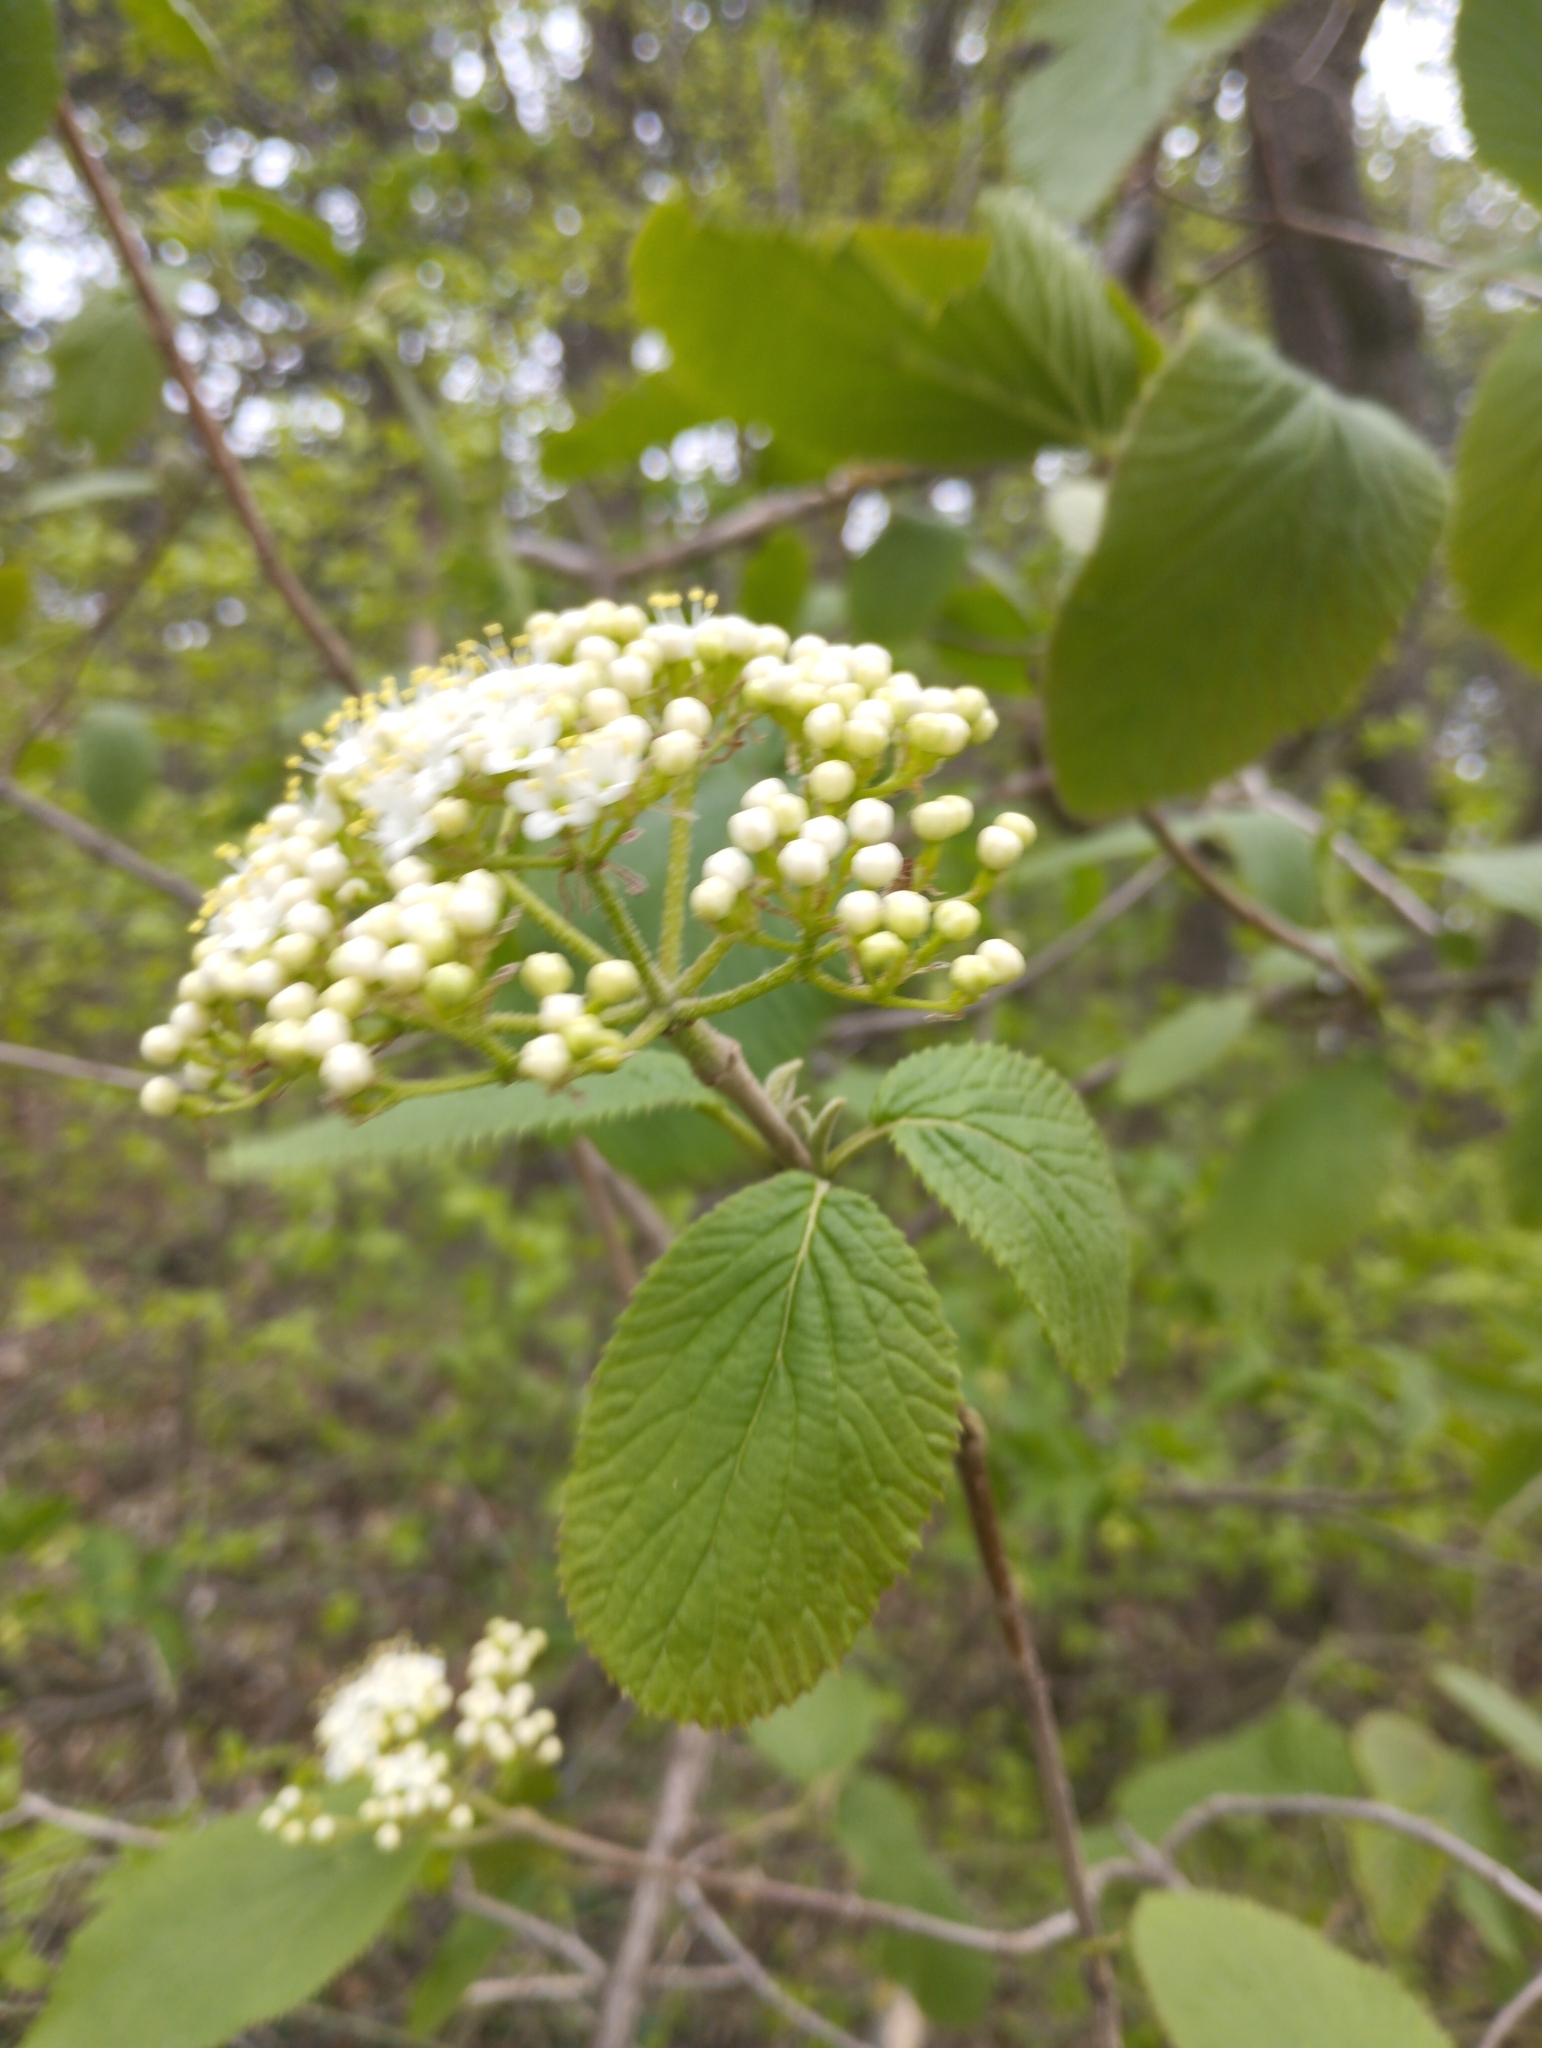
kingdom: Plantae
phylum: Tracheophyta
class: Magnoliopsida
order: Dipsacales
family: Viburnaceae
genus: Viburnum
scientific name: Viburnum lantana
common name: Wayfaring tree
